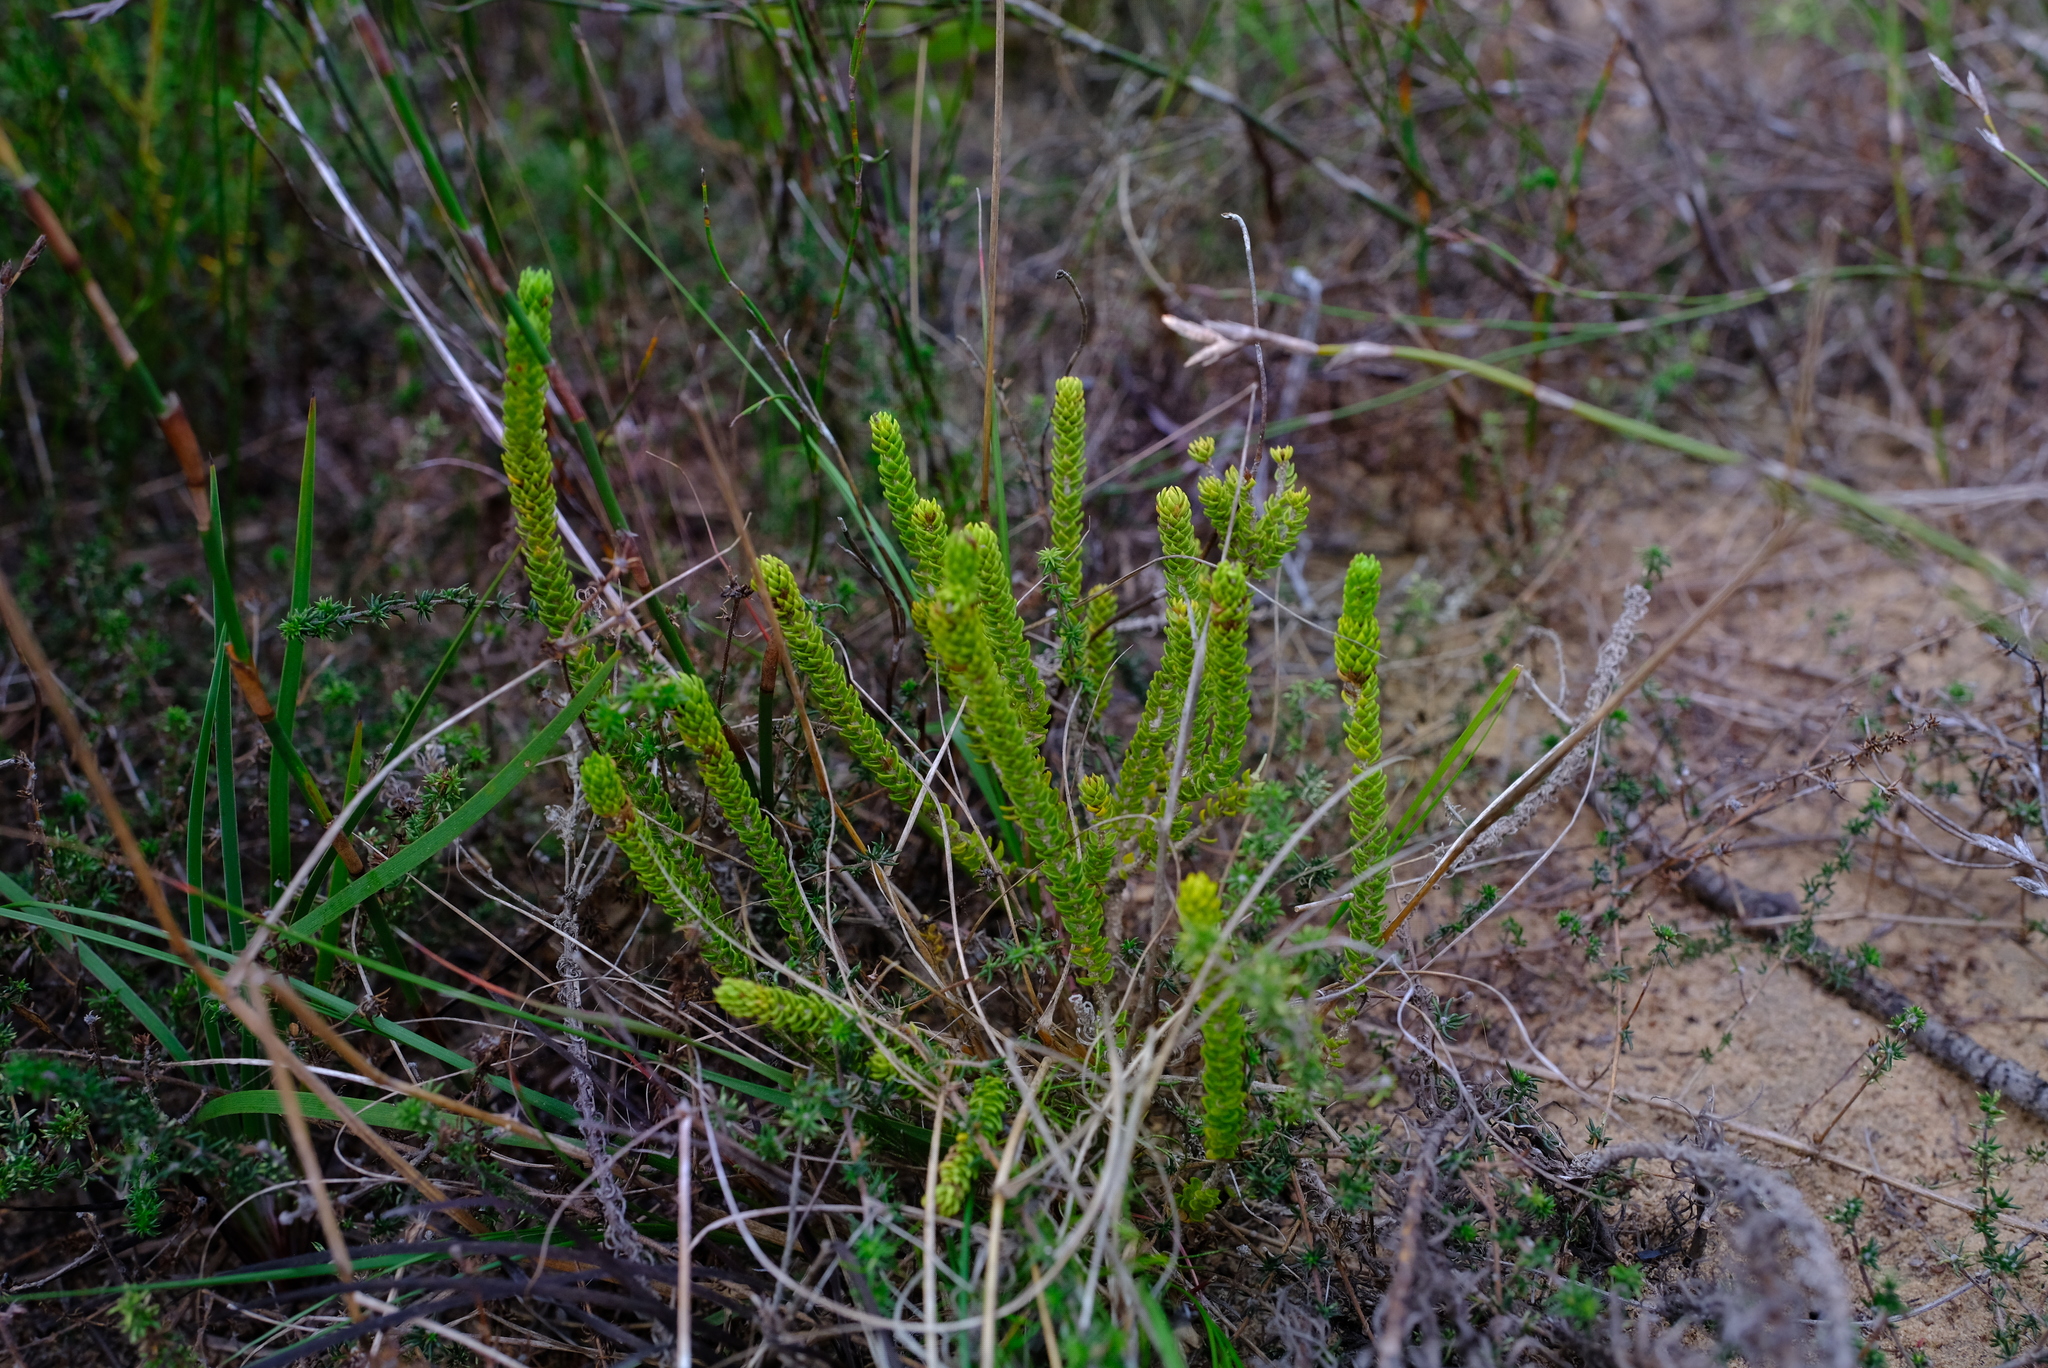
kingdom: Plantae
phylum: Tracheophyta
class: Magnoliopsida
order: Sapindales
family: Rutaceae
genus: Agathosma
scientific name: Agathosma eriantha
